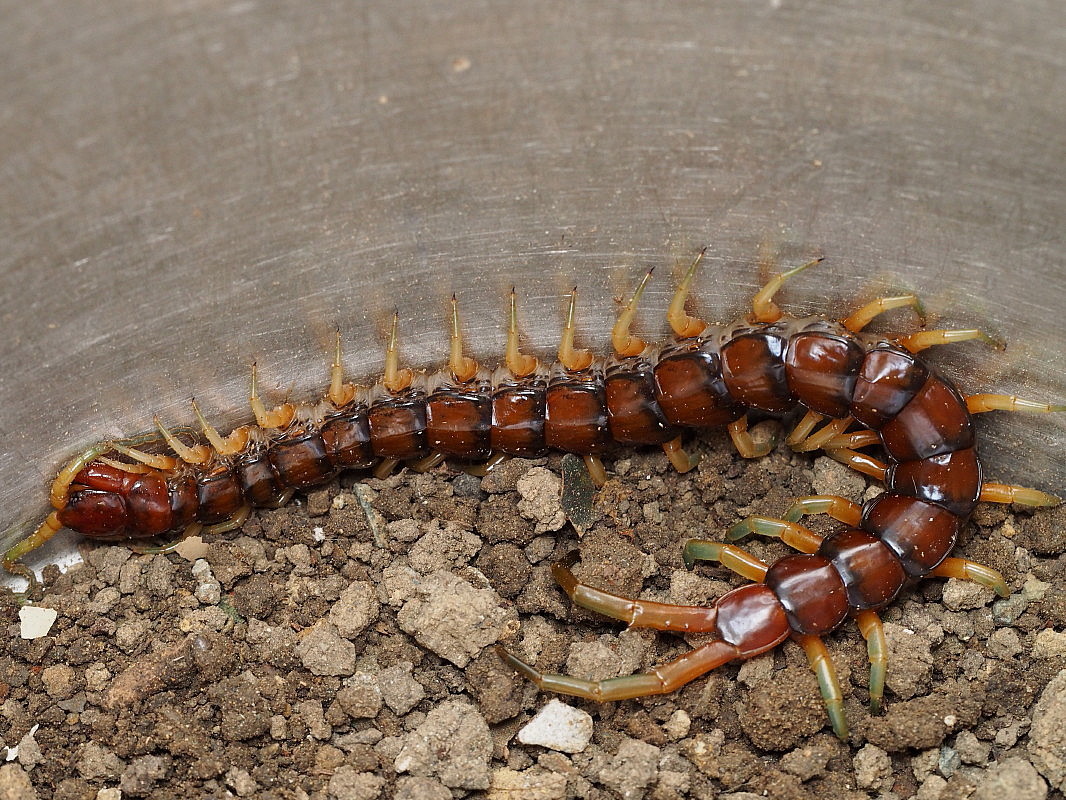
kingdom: Animalia
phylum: Arthropoda
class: Chilopoda
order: Scolopendromorpha
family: Scolopendridae
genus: Cormocephalus
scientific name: Cormocephalus rubriceps
